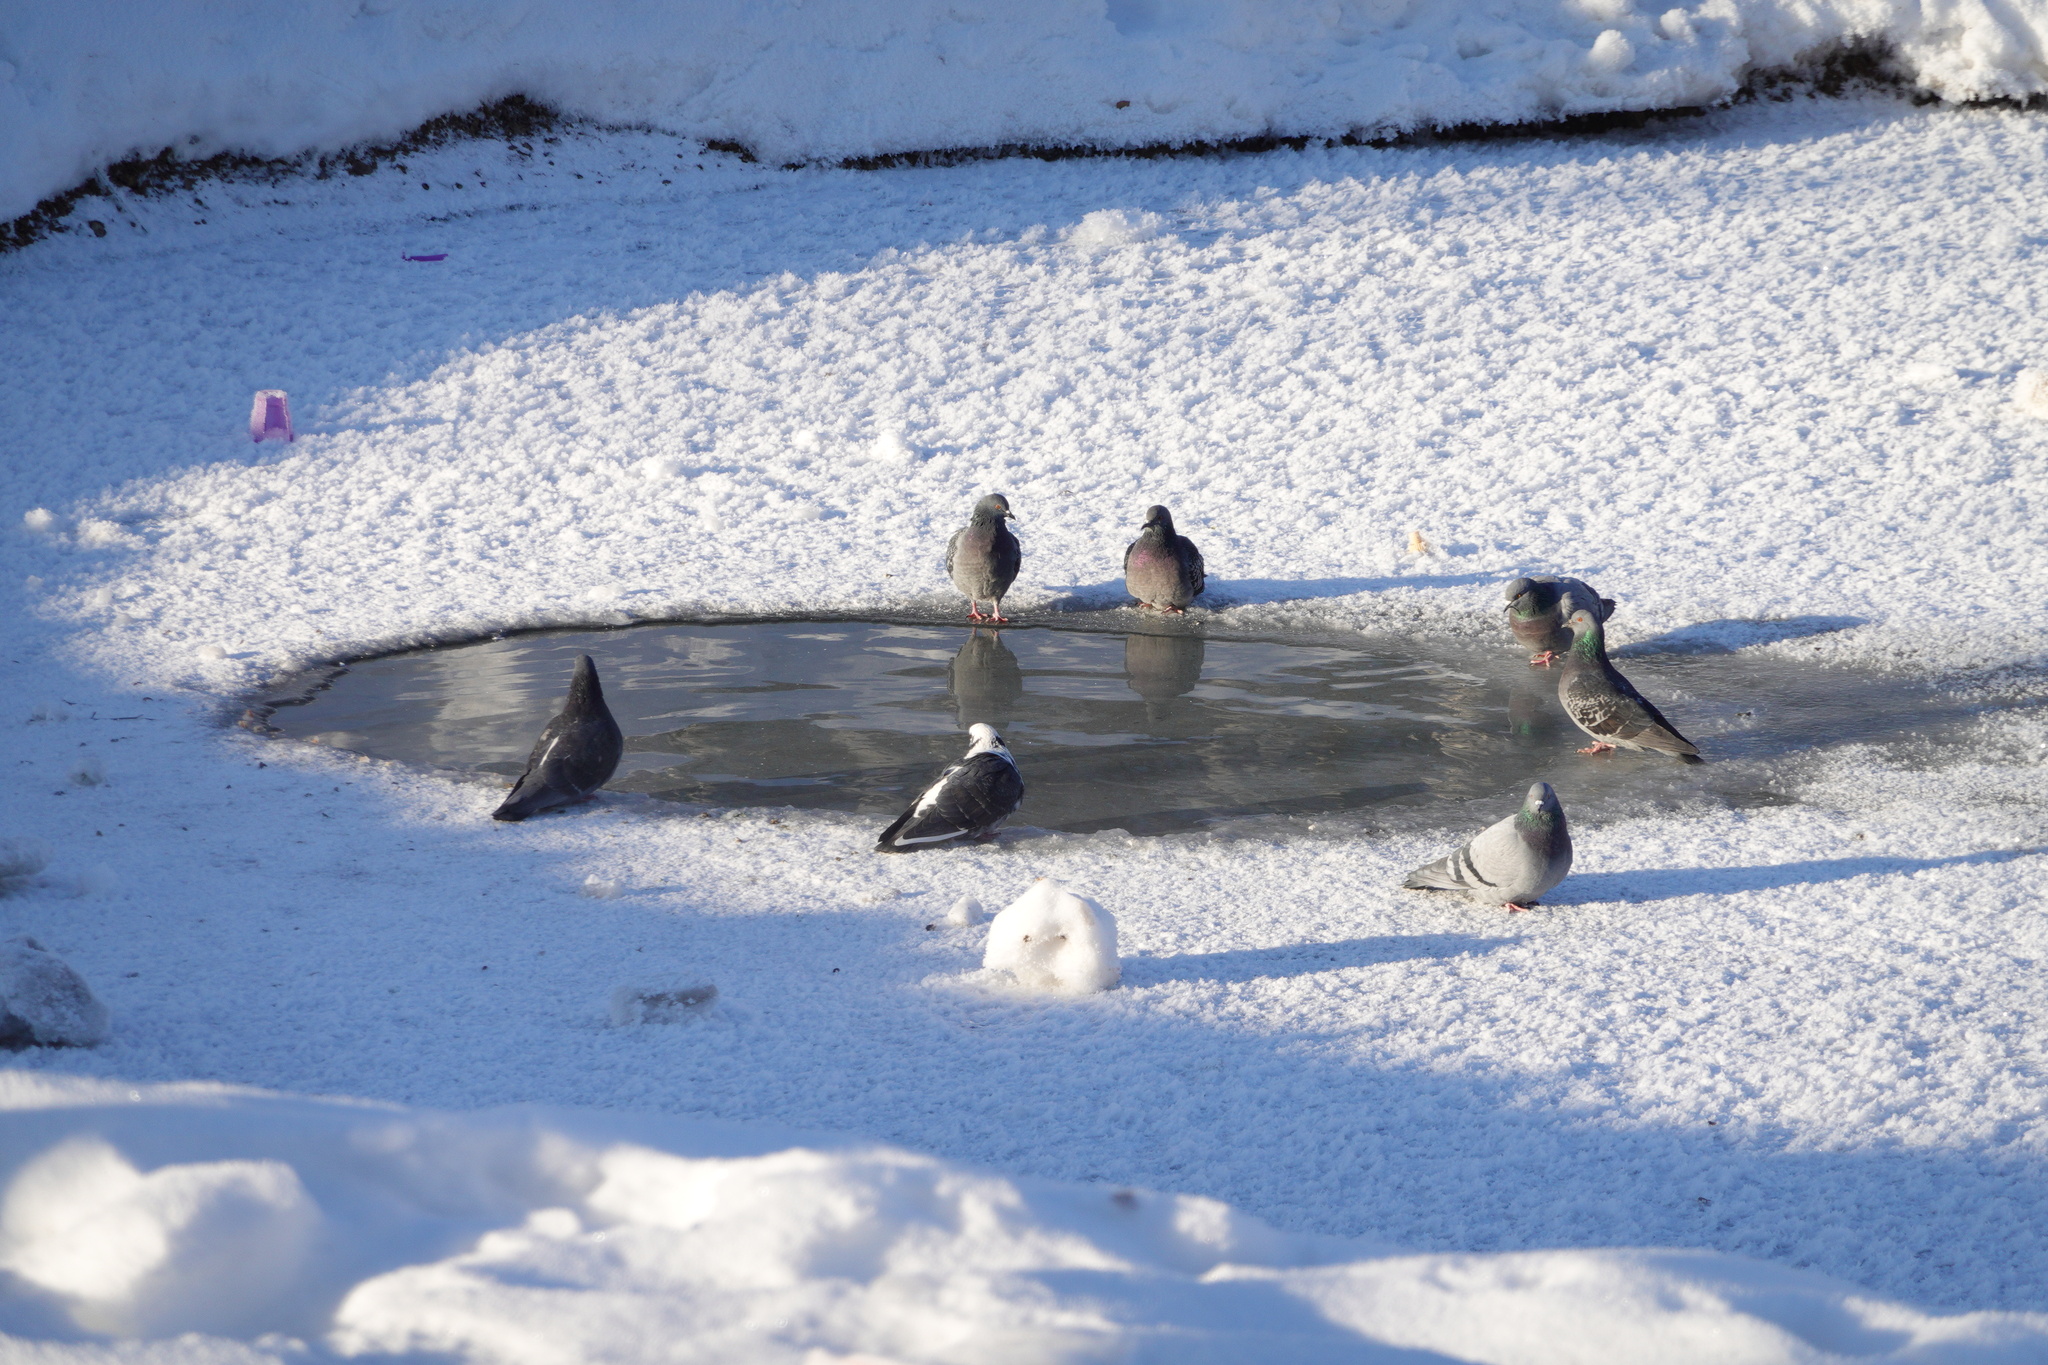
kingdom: Animalia
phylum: Chordata
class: Aves
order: Columbiformes
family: Columbidae
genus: Columba
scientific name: Columba livia
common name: Rock pigeon
